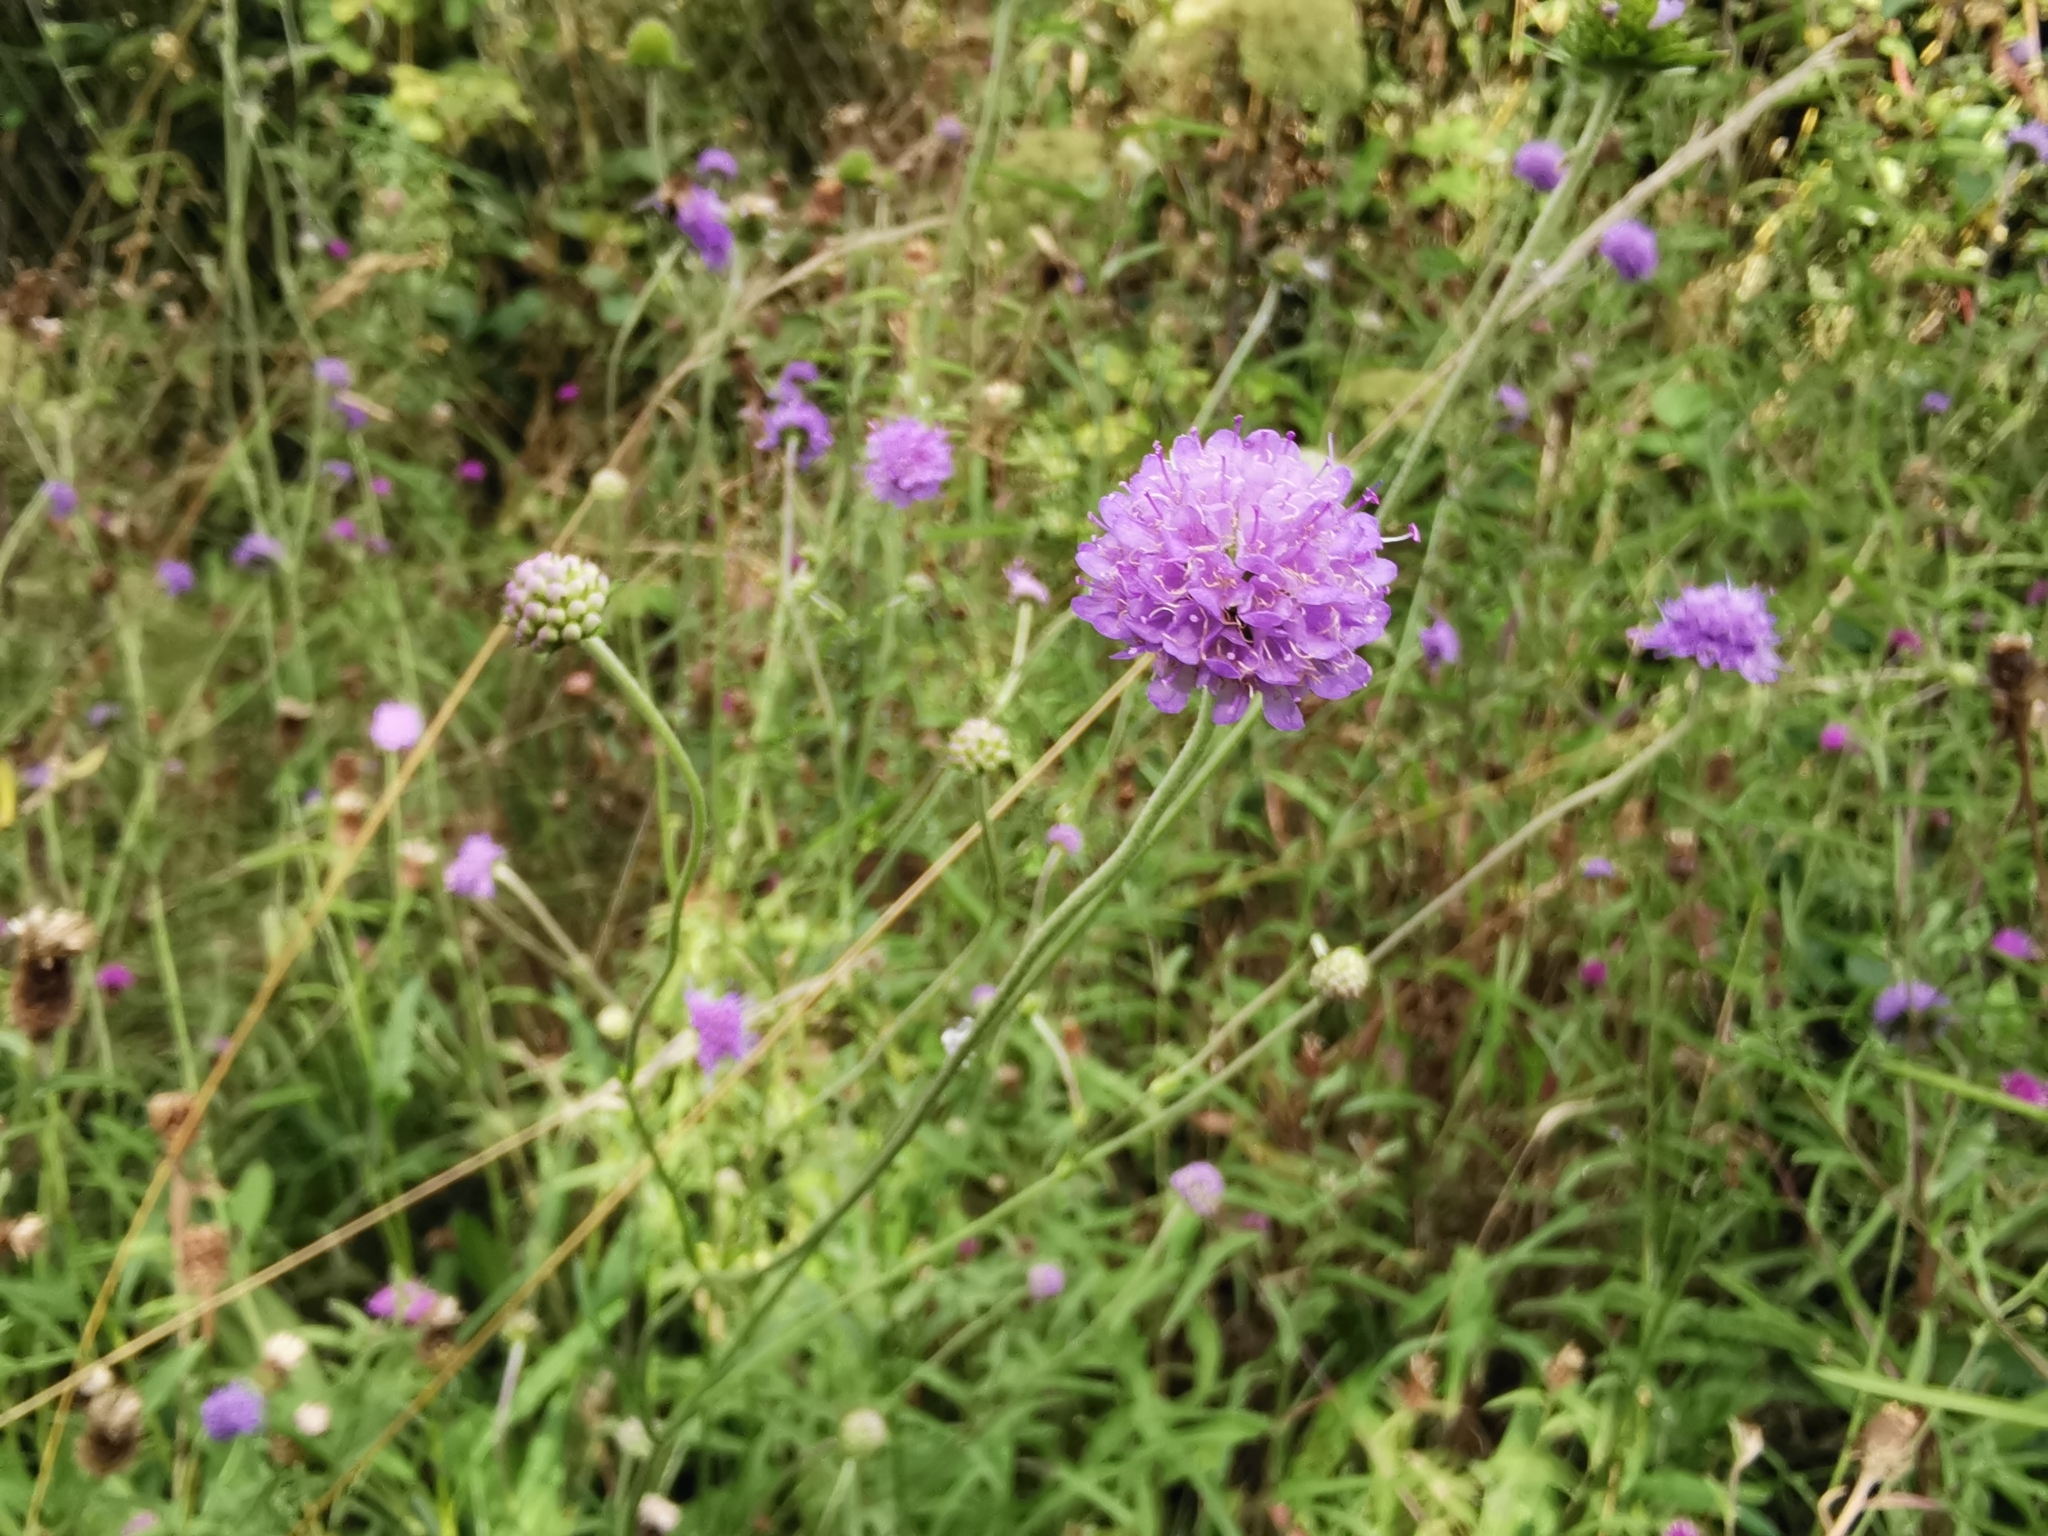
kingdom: Plantae
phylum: Tracheophyta
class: Magnoliopsida
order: Dipsacales
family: Caprifoliaceae
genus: Succisa
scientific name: Succisa pratensis
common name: Devil's-bit
